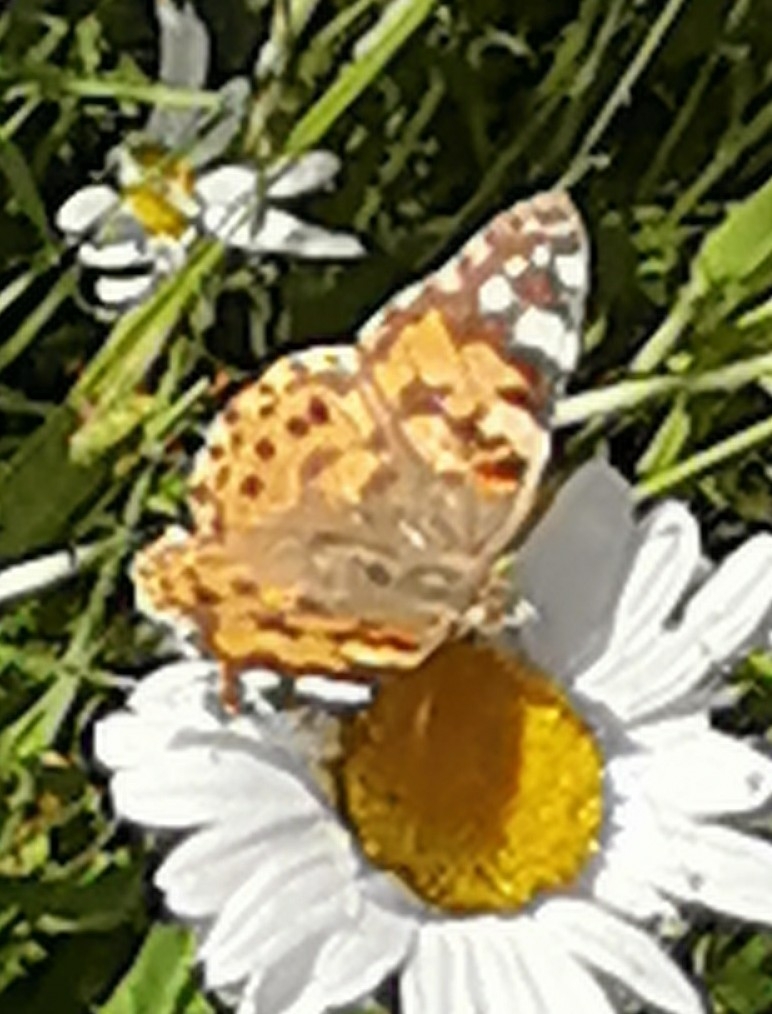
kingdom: Animalia
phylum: Arthropoda
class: Insecta
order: Lepidoptera
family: Nymphalidae
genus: Vanessa
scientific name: Vanessa cardui
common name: Painted lady
